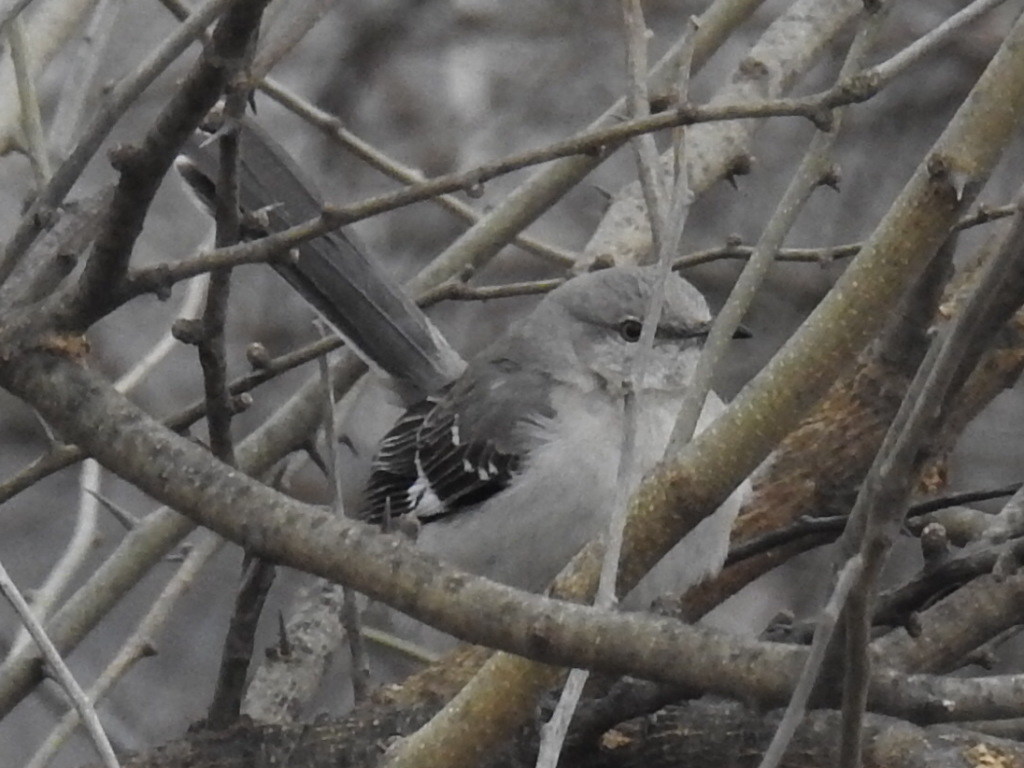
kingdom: Animalia
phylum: Chordata
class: Aves
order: Passeriformes
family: Mimidae
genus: Mimus
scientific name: Mimus polyglottos
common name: Northern mockingbird
